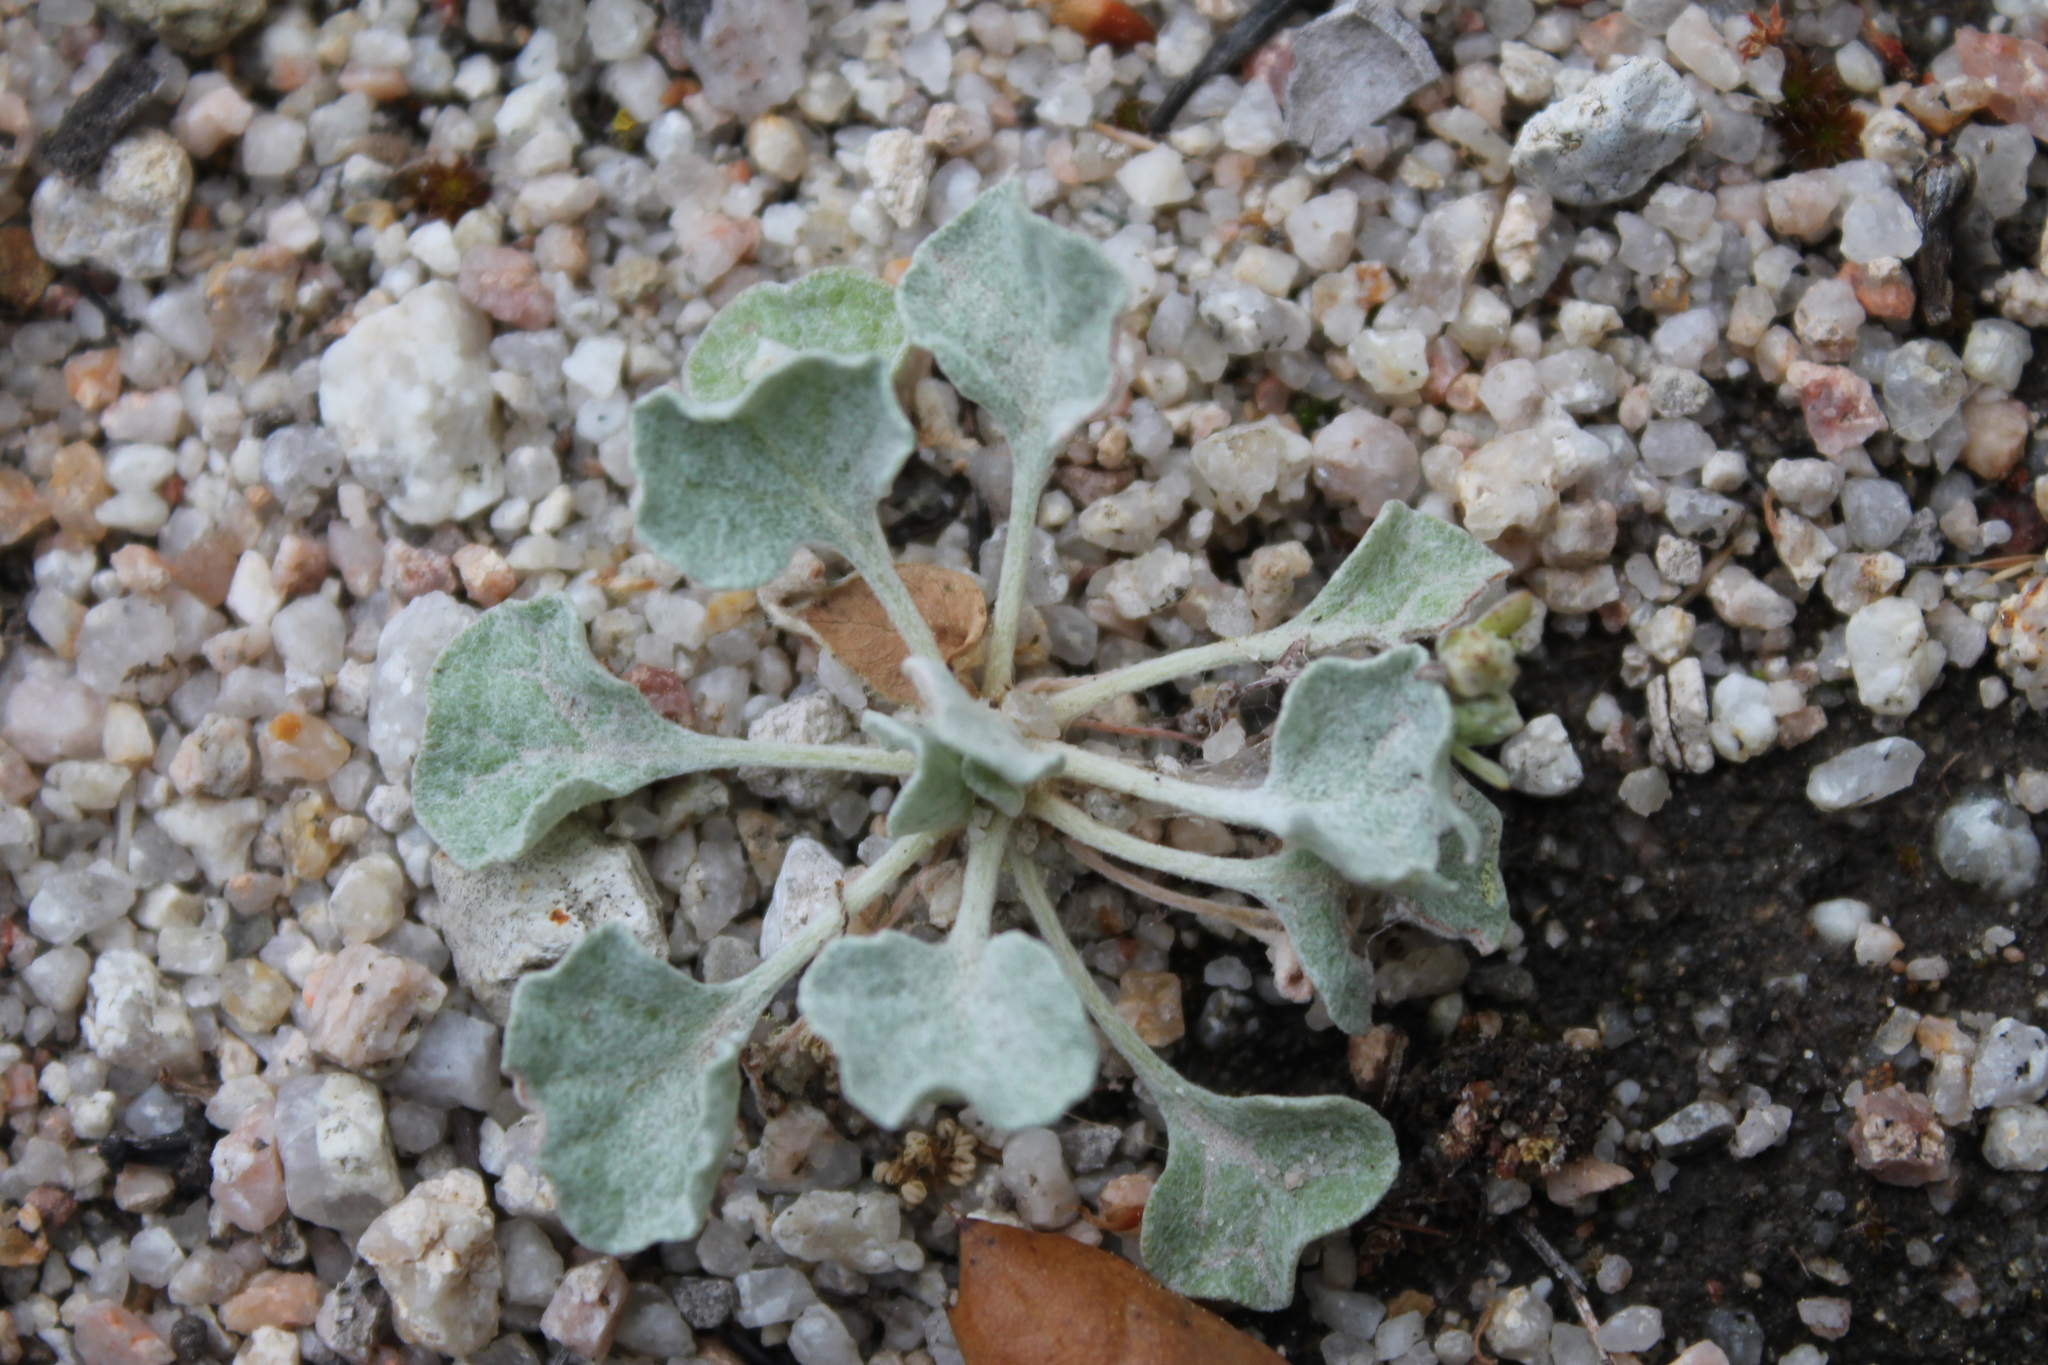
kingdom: Plantae
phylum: Tracheophyta
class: Magnoliopsida
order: Caryophyllales
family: Polygonaceae
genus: Eriogonum
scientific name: Eriogonum elegans
